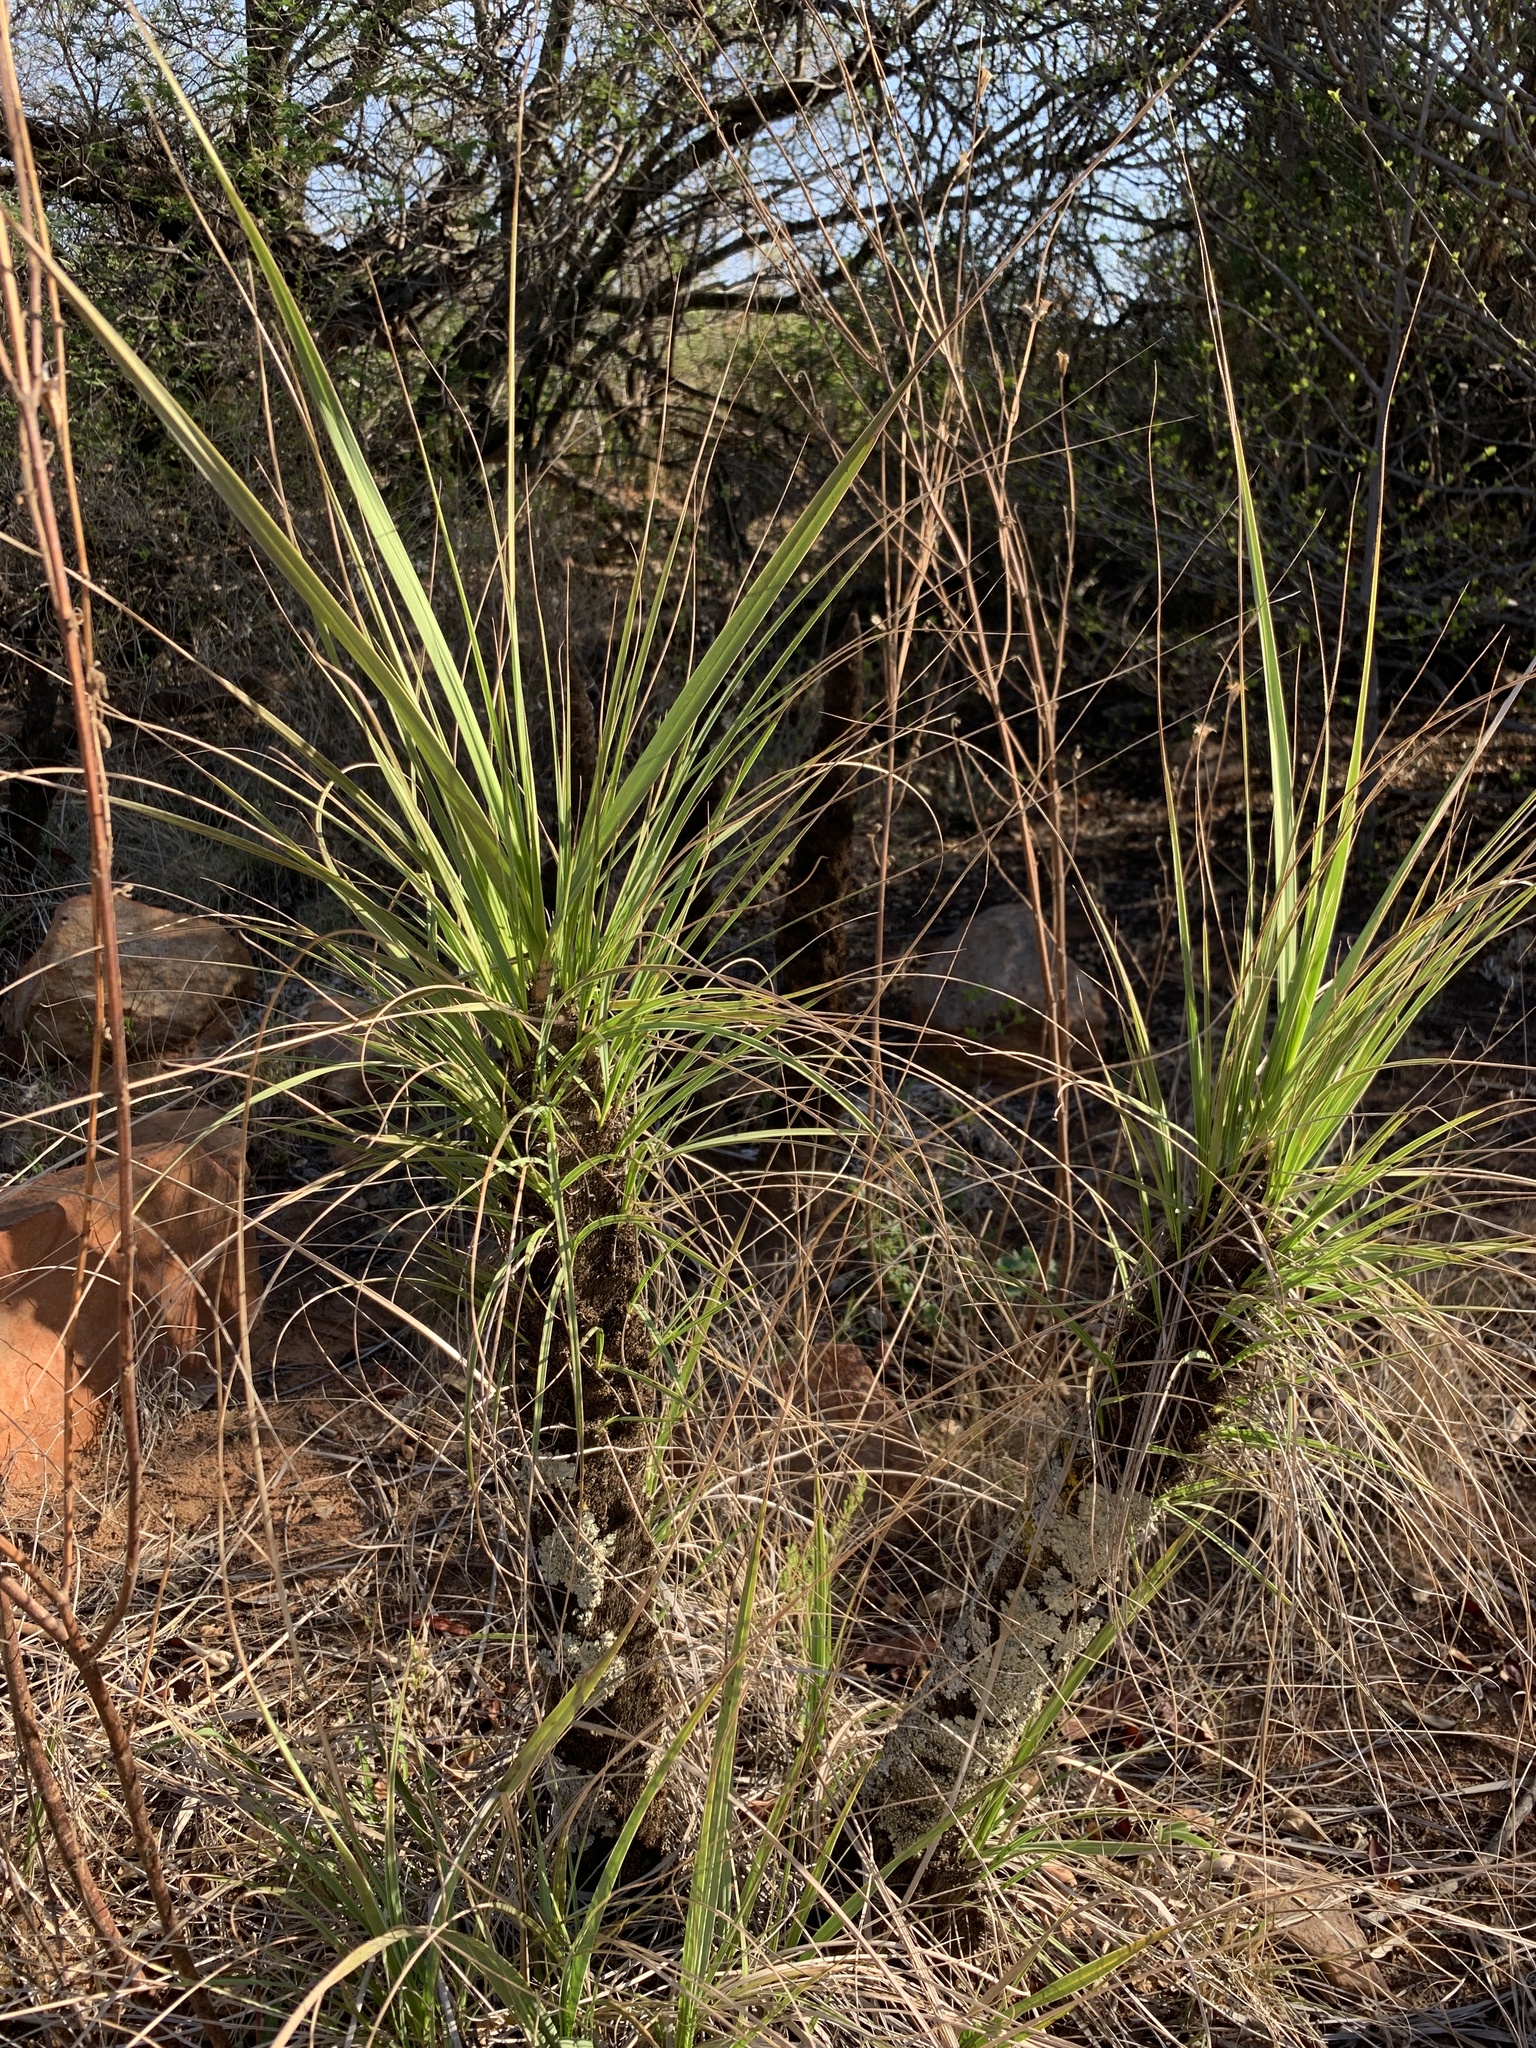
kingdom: Plantae
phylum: Tracheophyta
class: Liliopsida
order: Pandanales
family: Velloziaceae
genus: Xerophyta
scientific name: Xerophyta retinervis
